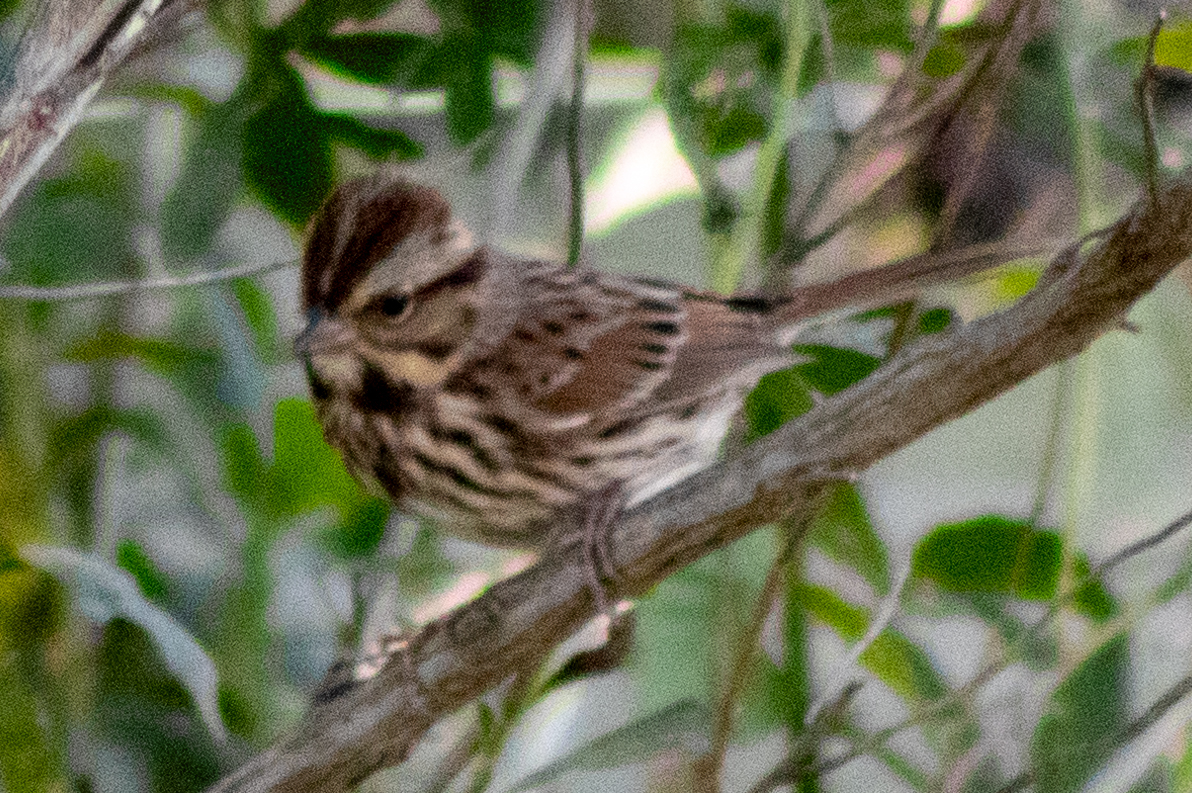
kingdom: Animalia
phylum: Chordata
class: Aves
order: Passeriformes
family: Passerellidae
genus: Melospiza
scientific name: Melospiza melodia
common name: Song sparrow
